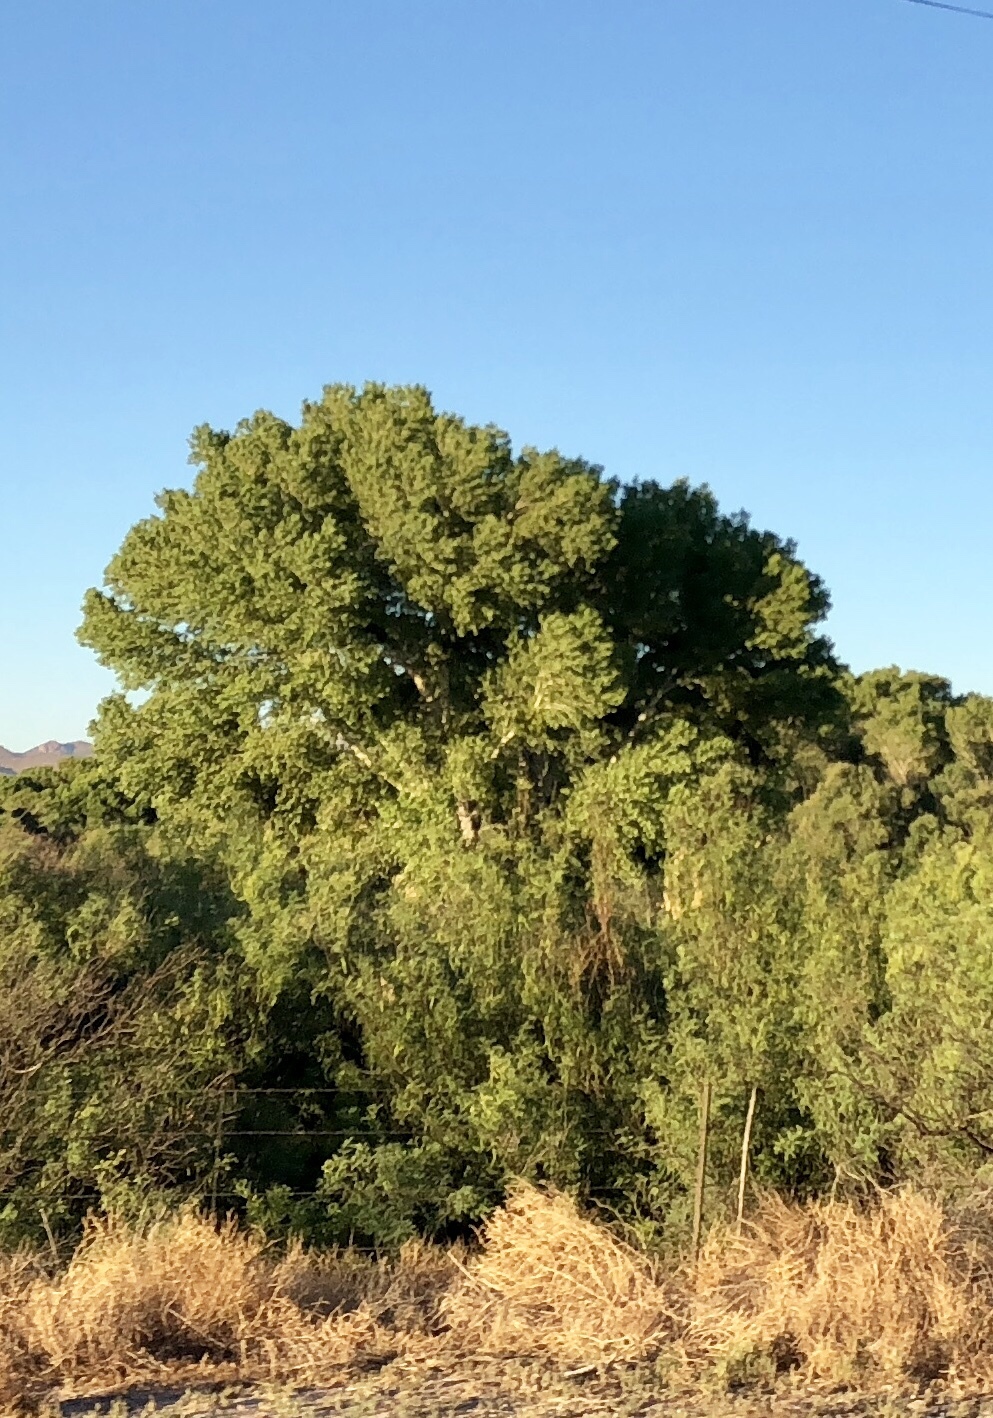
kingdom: Plantae
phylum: Tracheophyta
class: Magnoliopsida
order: Malpighiales
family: Salicaceae
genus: Populus
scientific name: Populus fremontii
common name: Fremont's cottonwood
